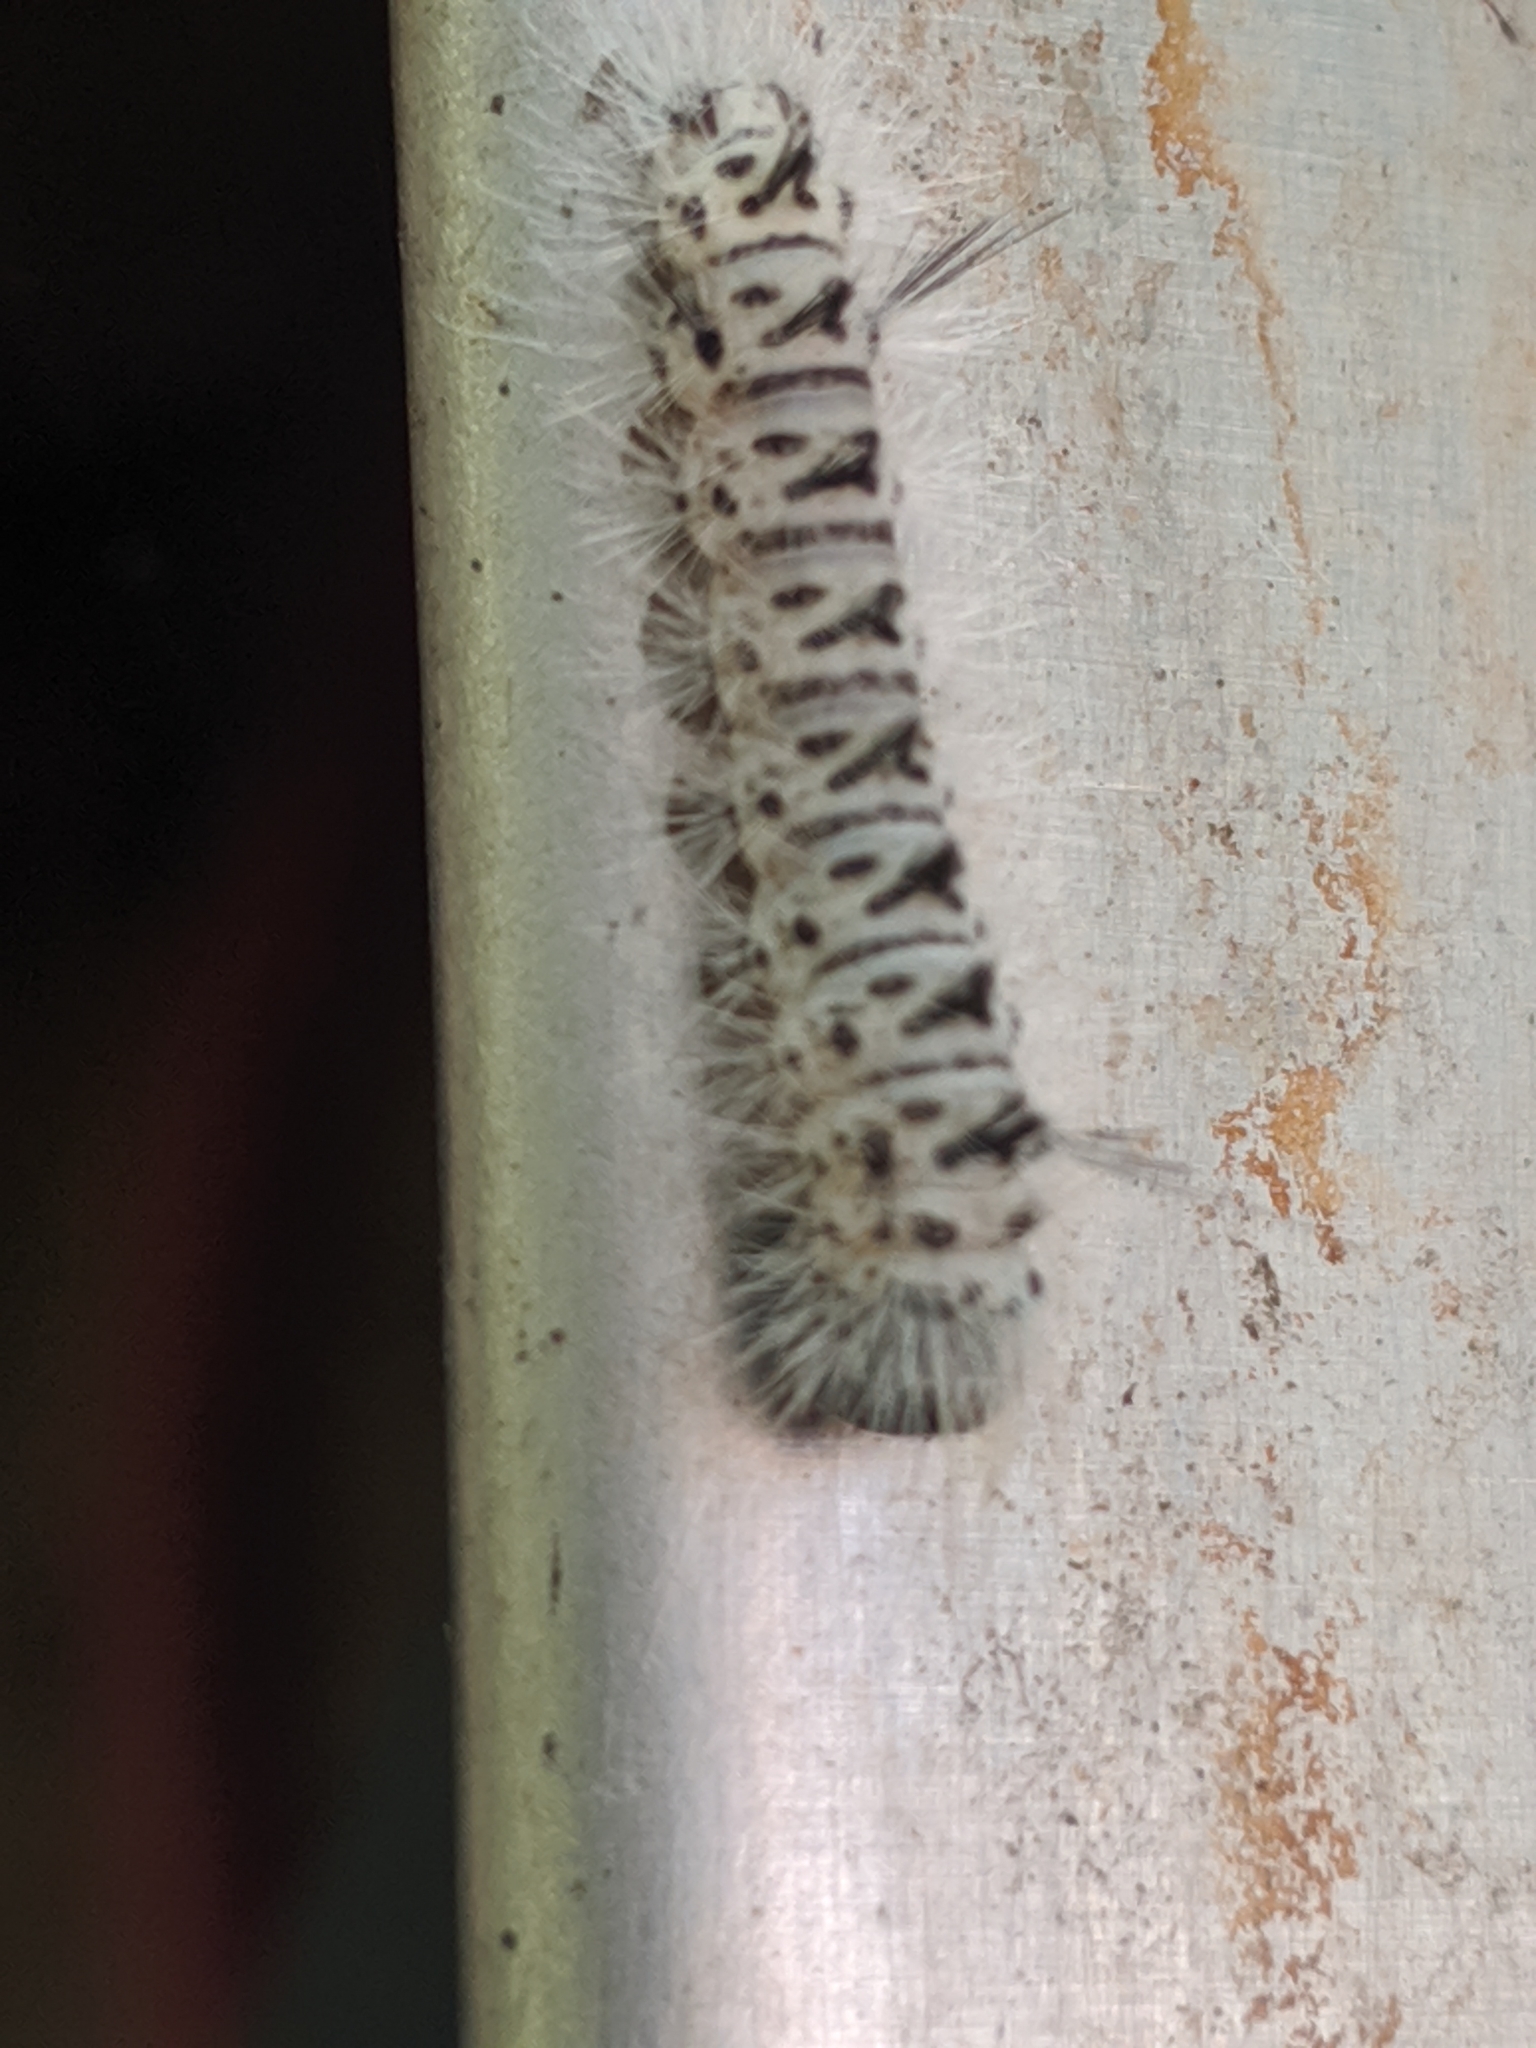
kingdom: Animalia
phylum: Arthropoda
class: Insecta
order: Lepidoptera
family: Erebidae
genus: Lophocampa
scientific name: Lophocampa caryae
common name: Hickory tussock moth
